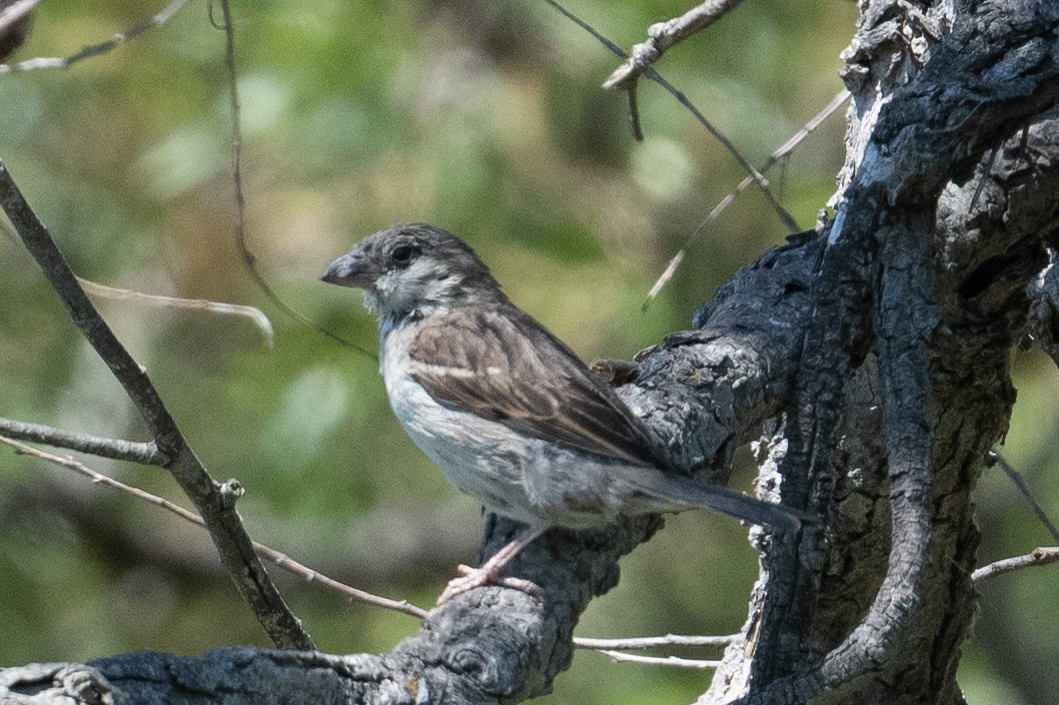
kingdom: Animalia
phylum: Chordata
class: Aves
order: Passeriformes
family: Passeridae
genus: Passer
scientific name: Passer domesticus
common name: House sparrow
